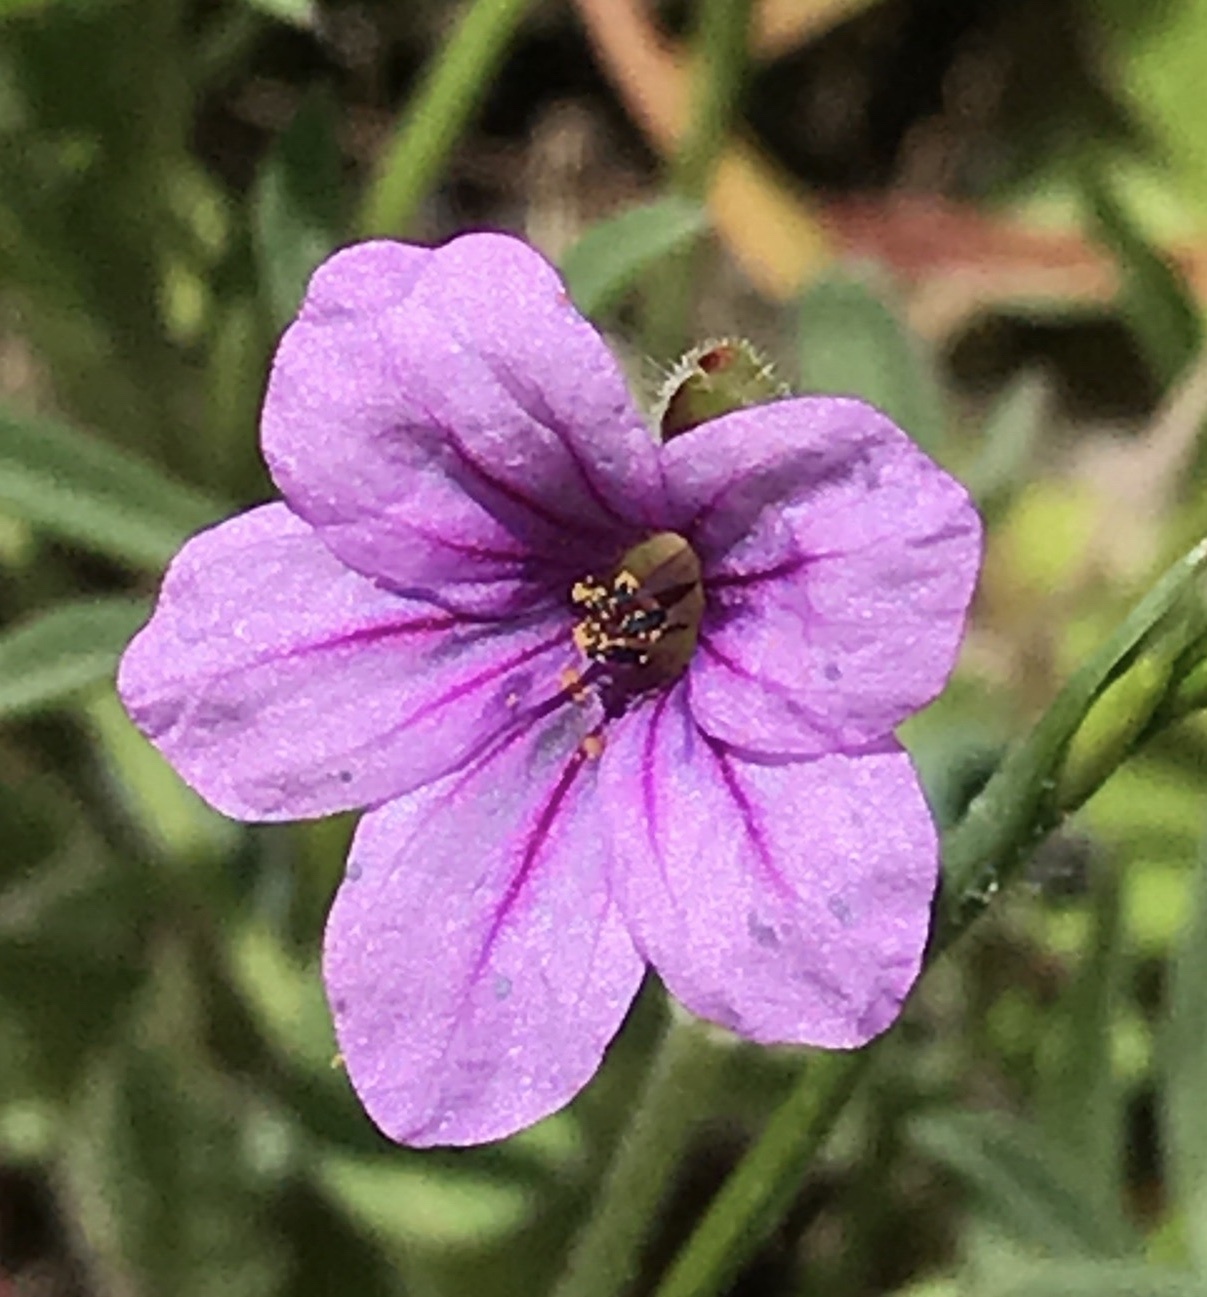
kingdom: Plantae
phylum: Tracheophyta
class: Magnoliopsida
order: Geraniales
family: Geraniaceae
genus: Erodium
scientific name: Erodium botrys
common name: Mediterranean stork's-bill
